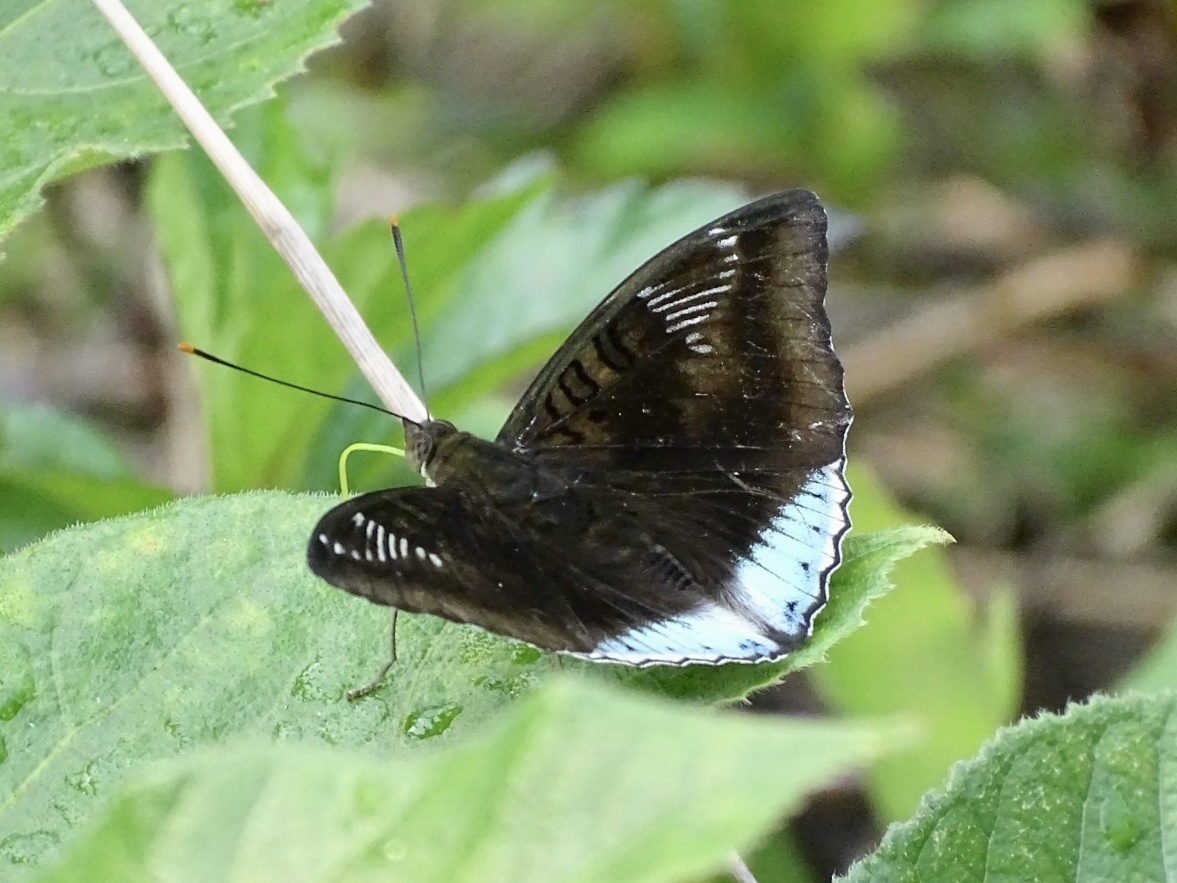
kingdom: Animalia
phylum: Arthropoda
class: Insecta
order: Lepidoptera
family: Nymphalidae
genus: Euthalia
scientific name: Euthalia phemius
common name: White-edged blue baron
